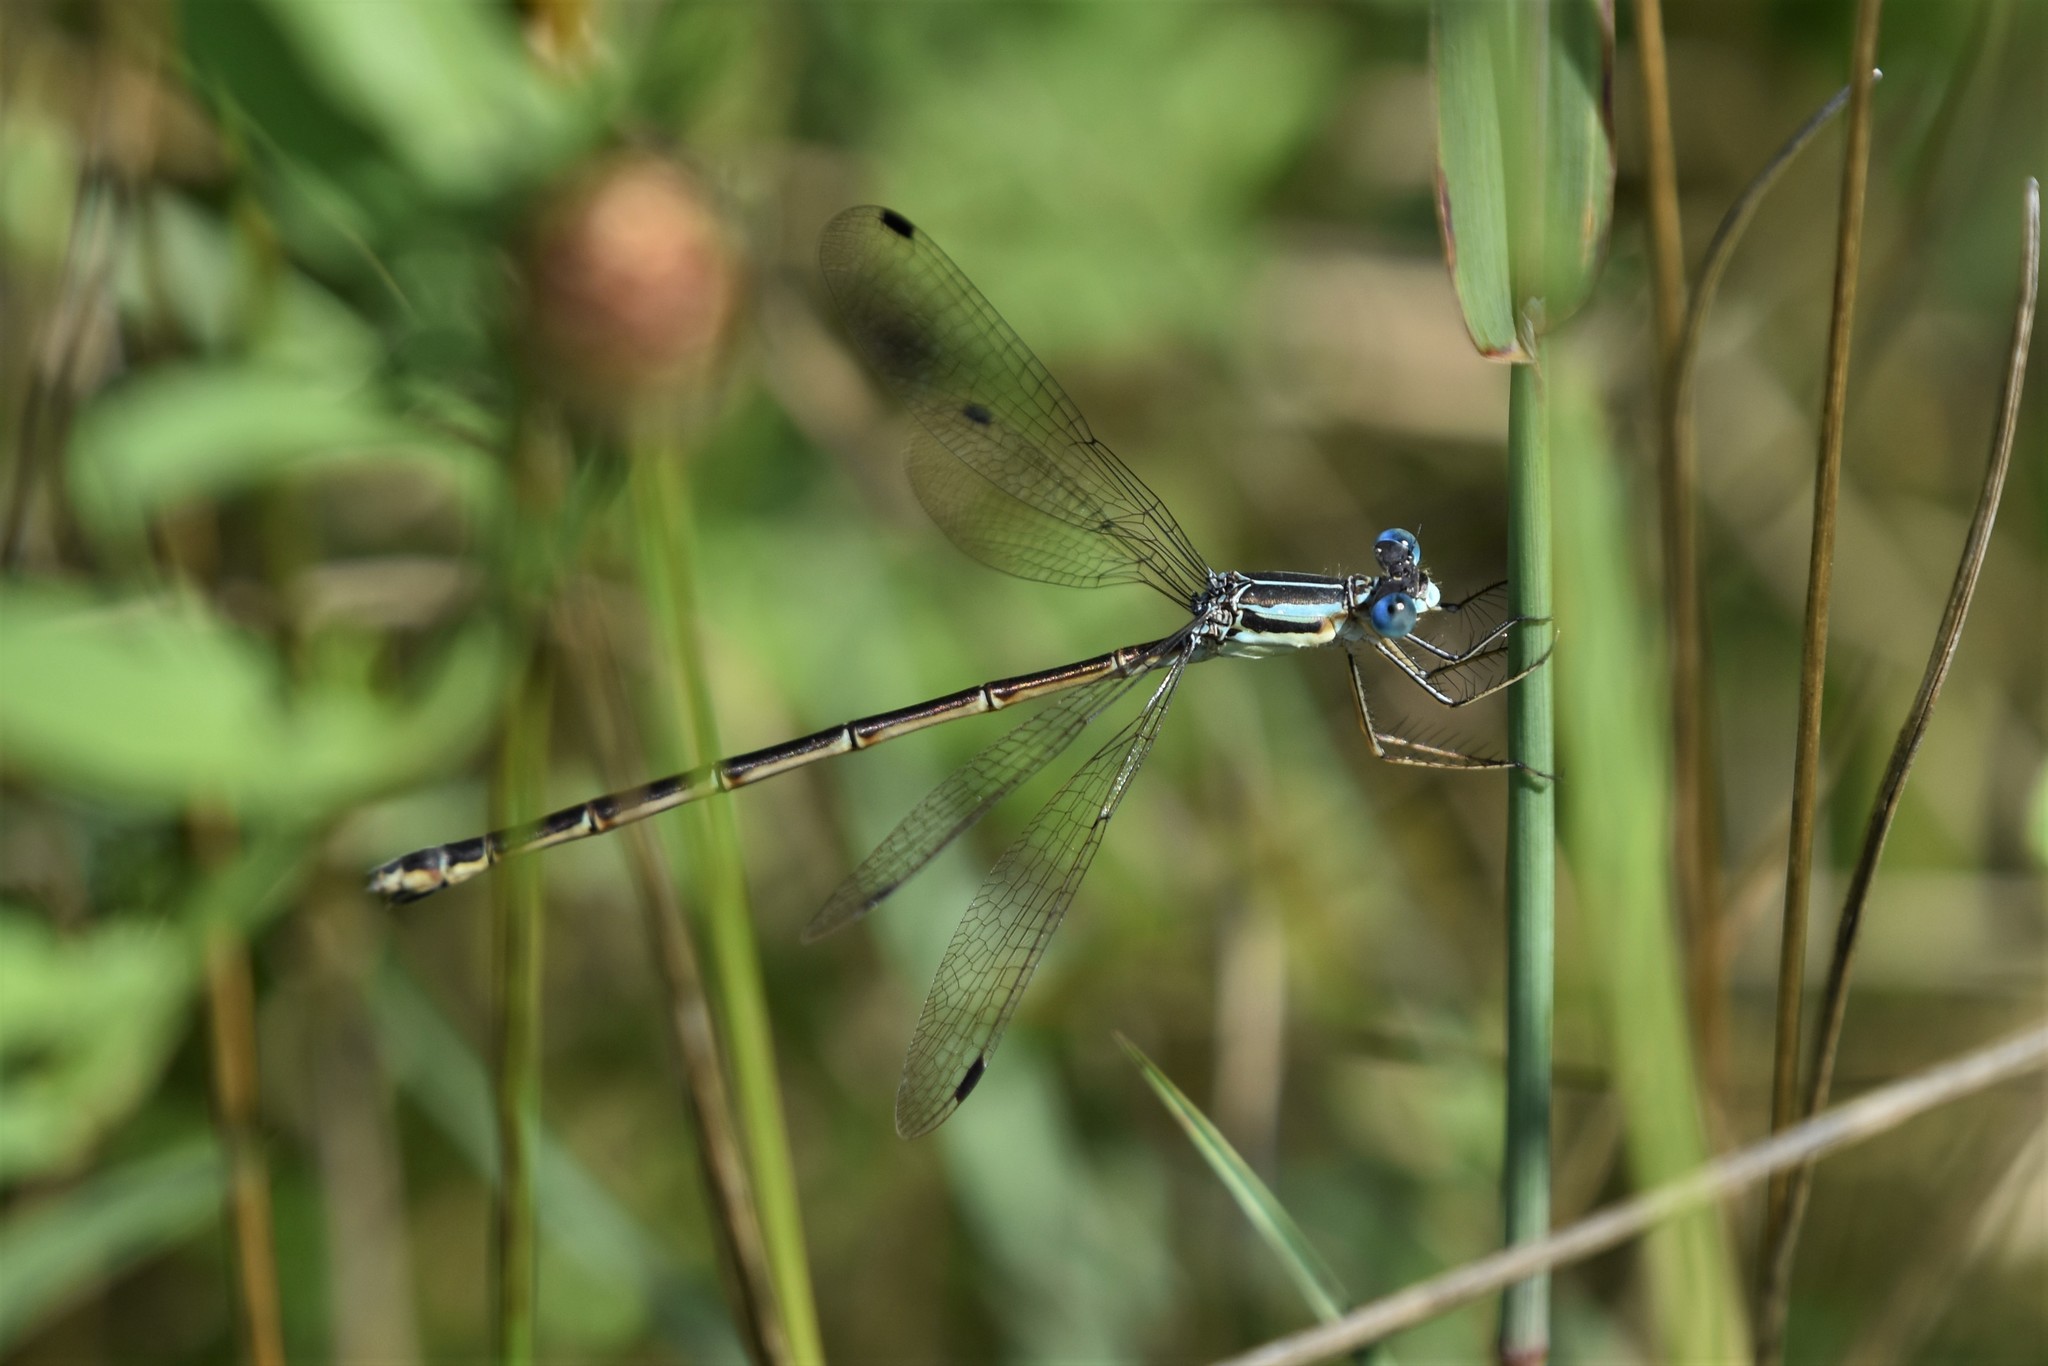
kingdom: Animalia
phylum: Arthropoda
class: Insecta
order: Odonata
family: Lestidae
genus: Lestes
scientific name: Lestes rectangularis
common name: Slender spreadwing
